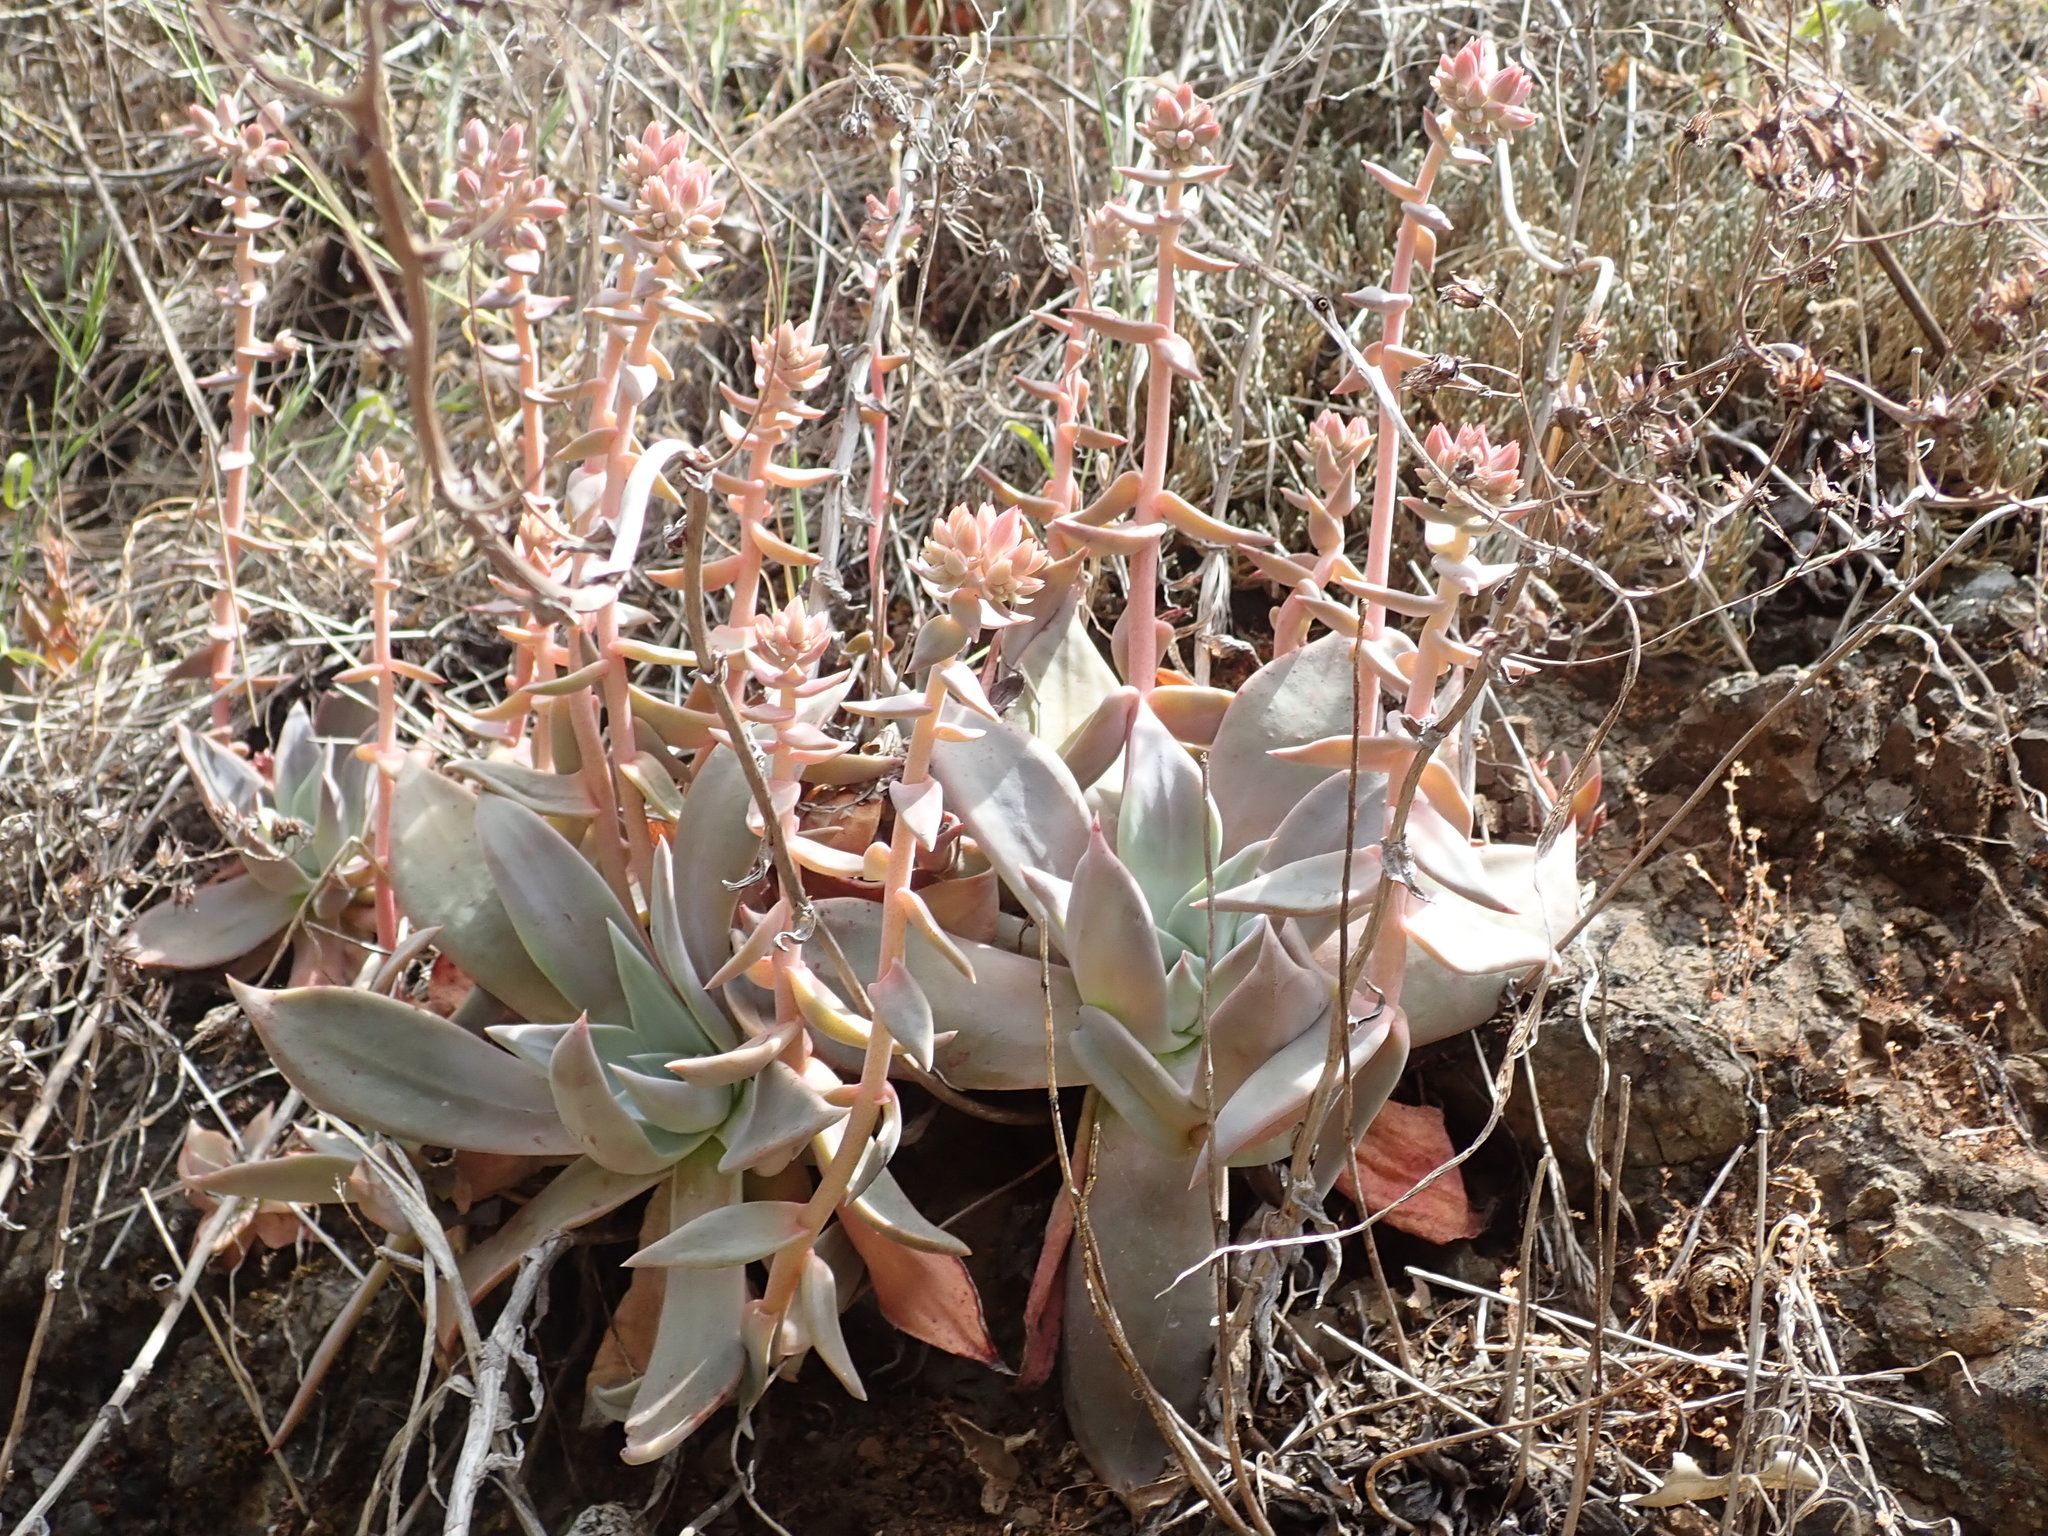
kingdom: Plantae
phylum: Tracheophyta
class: Magnoliopsida
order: Saxifragales
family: Crassulaceae
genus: Dudleya
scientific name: Dudleya cymosa
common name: Canyon dudleya
